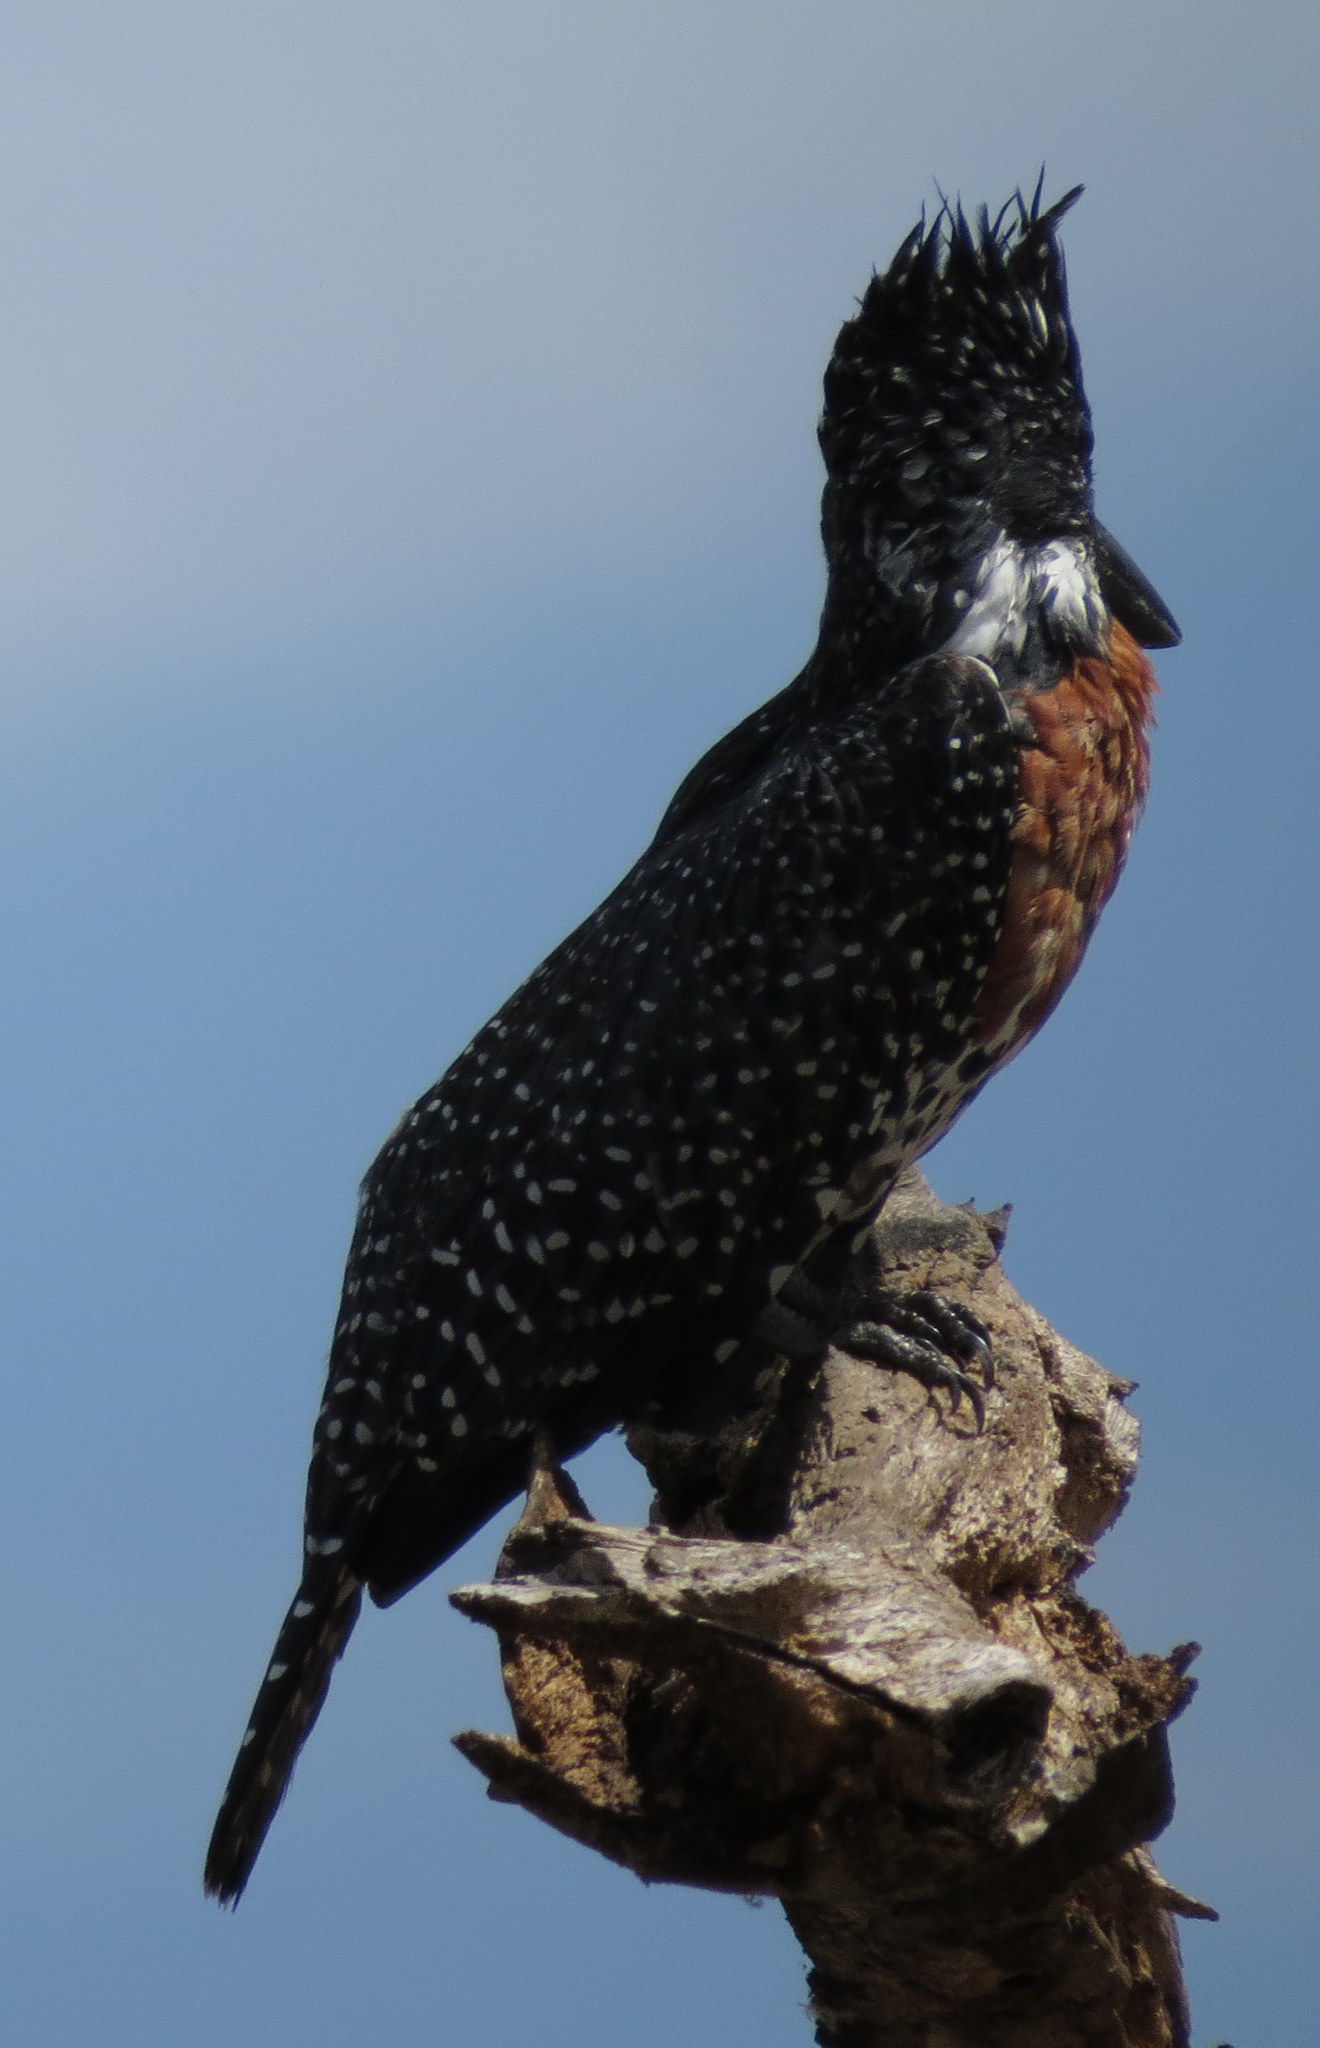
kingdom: Animalia
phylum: Chordata
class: Aves
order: Coraciiformes
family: Alcedinidae
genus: Megaceryle
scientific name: Megaceryle maxima
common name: Giant kingfisher
